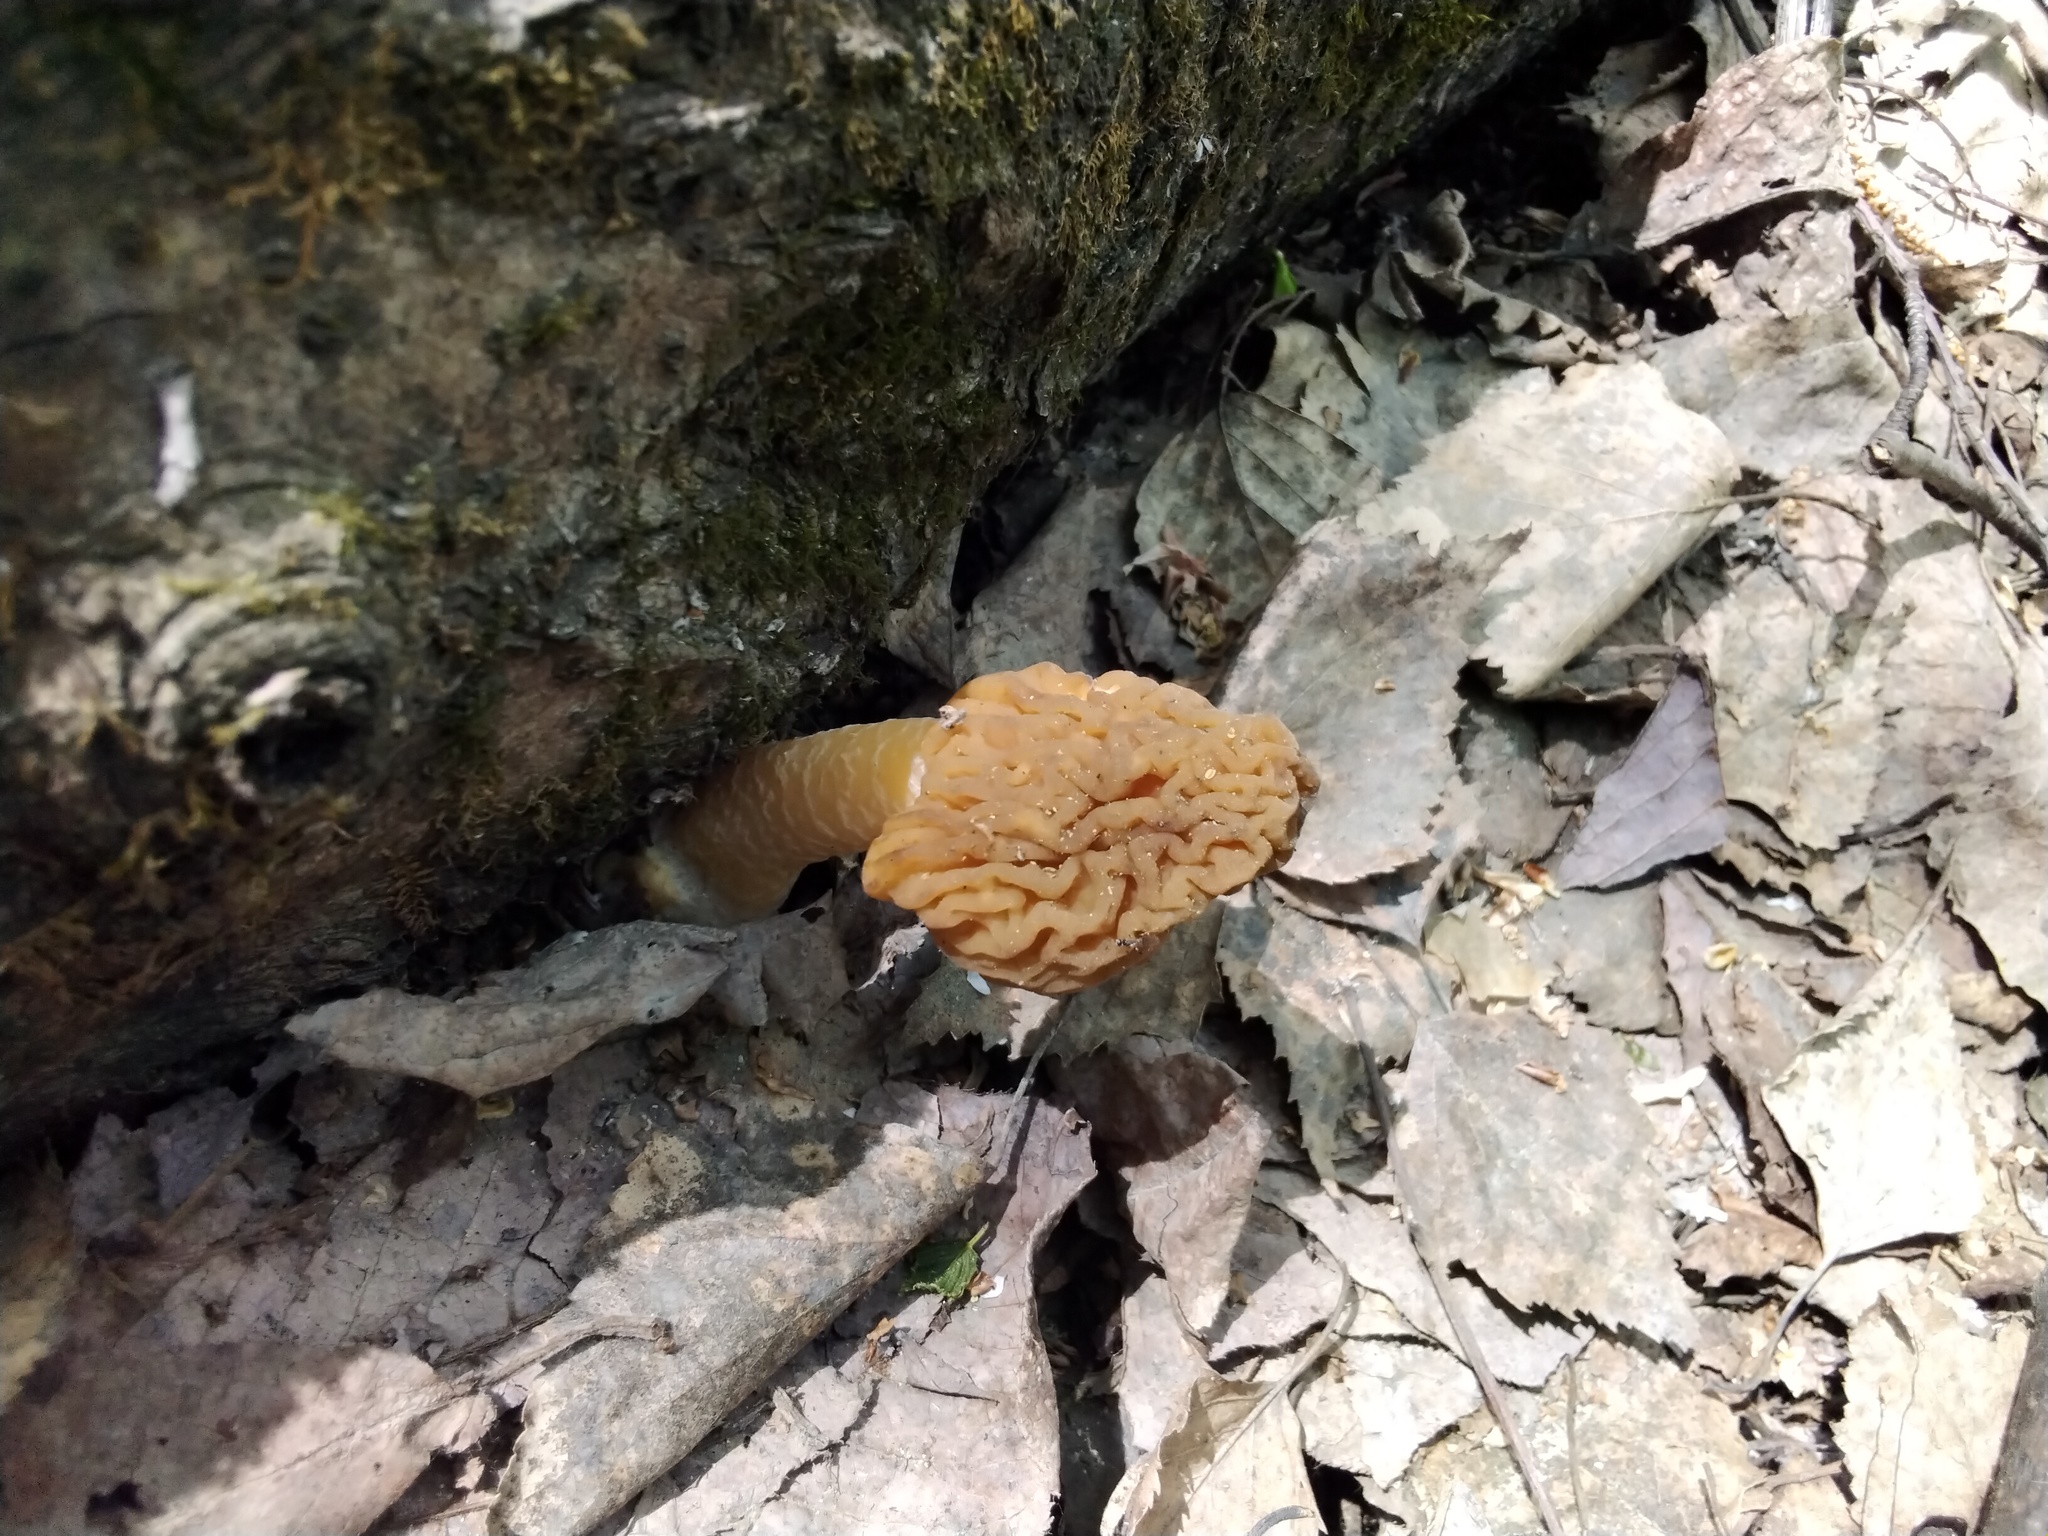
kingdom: Fungi
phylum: Ascomycota
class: Pezizomycetes
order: Pezizales
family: Morchellaceae
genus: Verpa
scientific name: Verpa bohemica
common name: Wrinkled thimble morel
